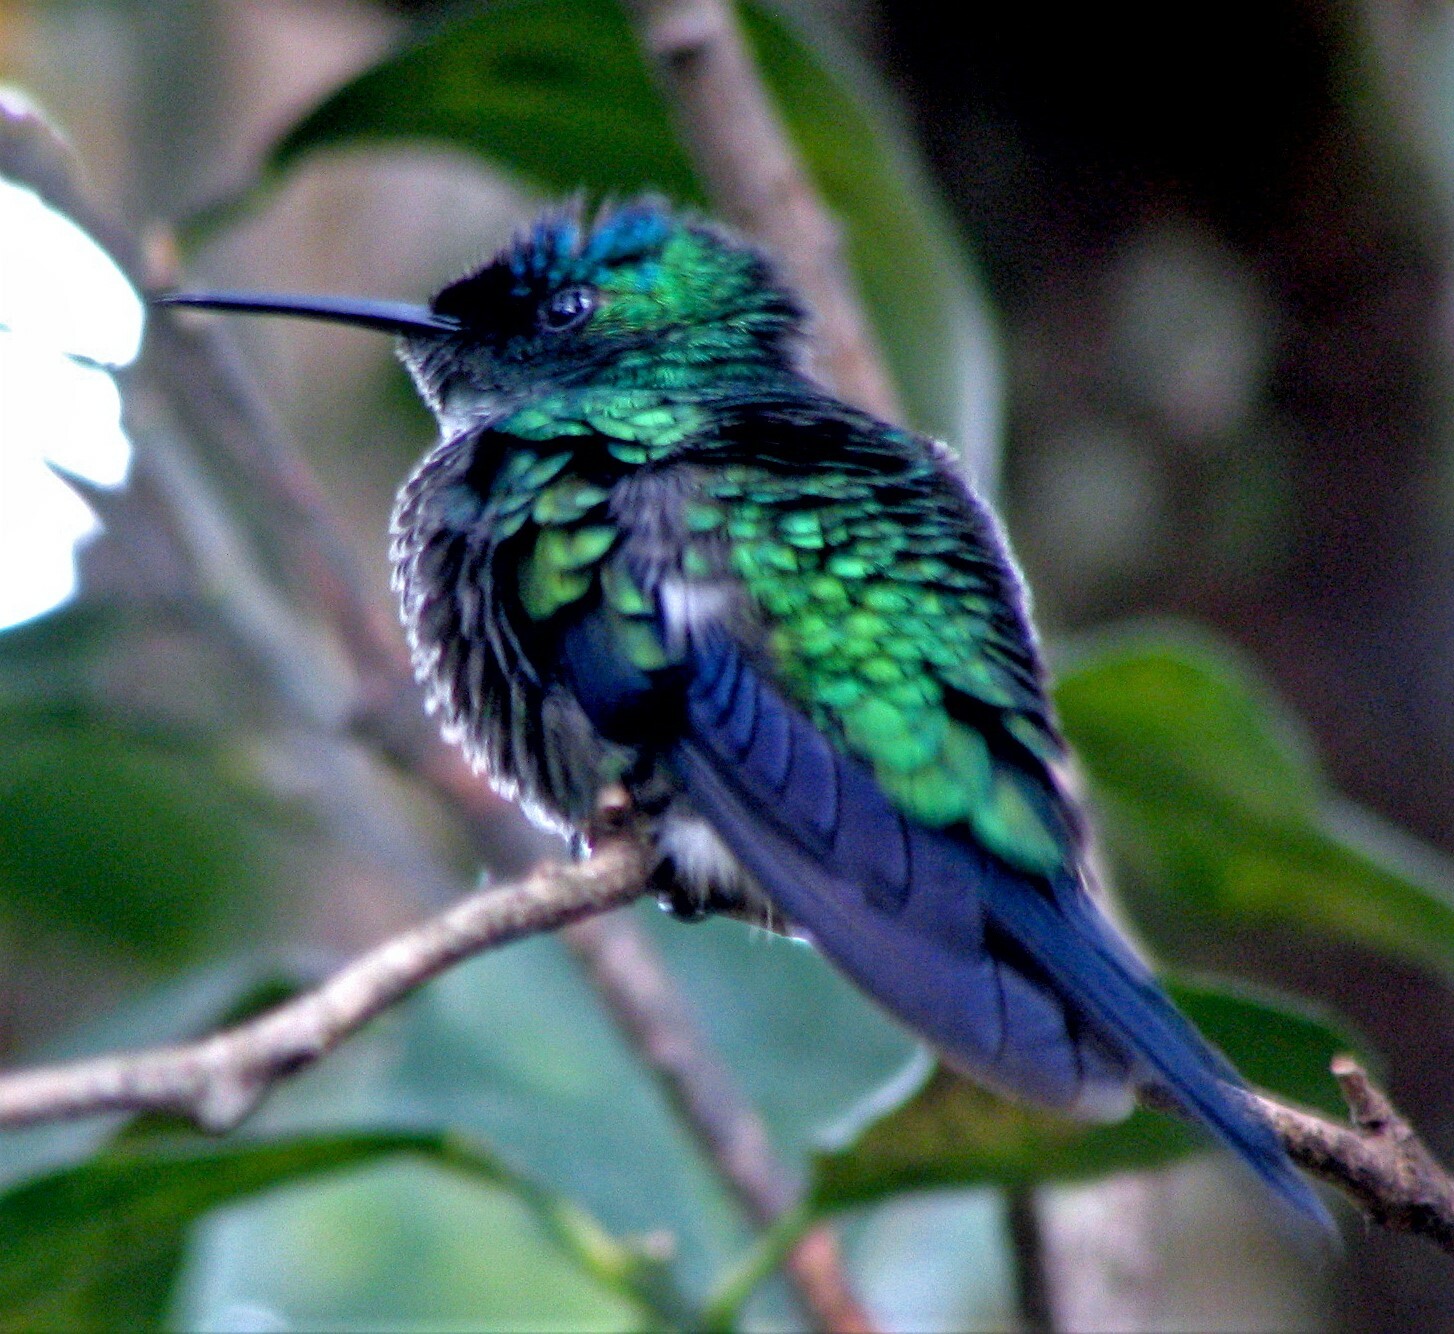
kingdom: Animalia
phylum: Chordata
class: Aves
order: Apodiformes
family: Trochilidae
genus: Thalurania
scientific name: Thalurania glaucopis
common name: Violet-capped woodnymph
